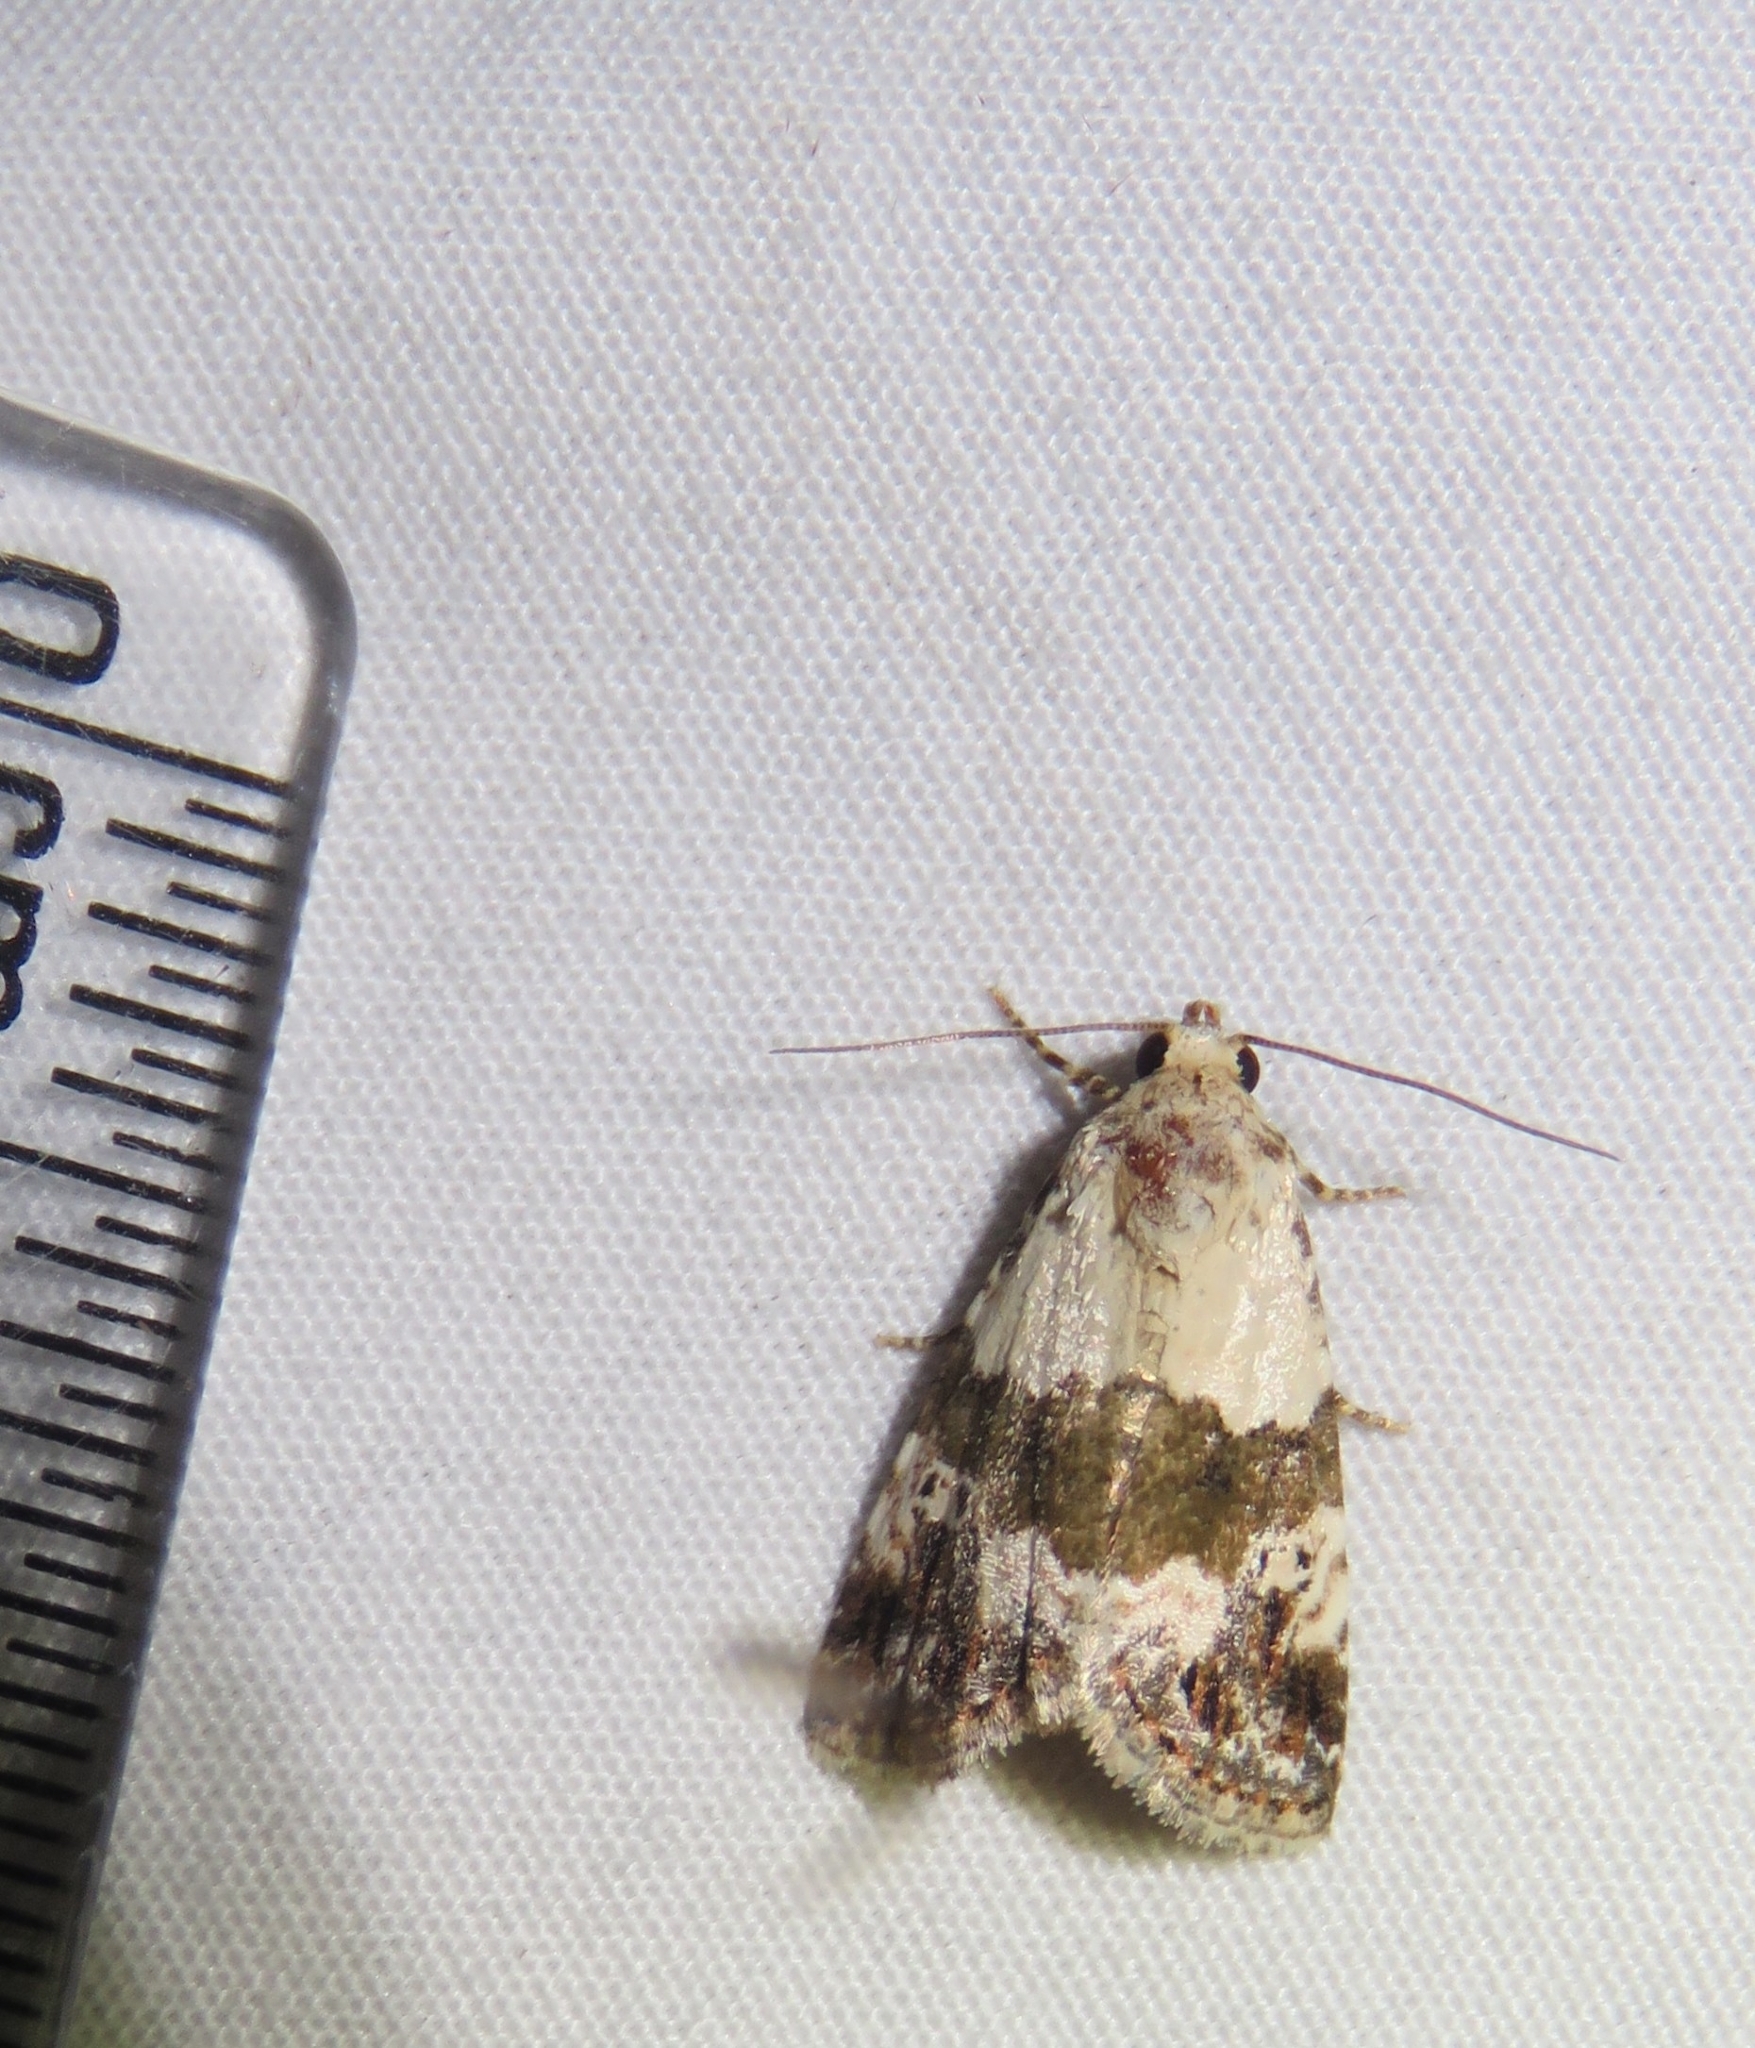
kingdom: Animalia
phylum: Arthropoda
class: Insecta
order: Lepidoptera
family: Noctuidae
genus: Maliattha
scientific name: Maliattha signifera
